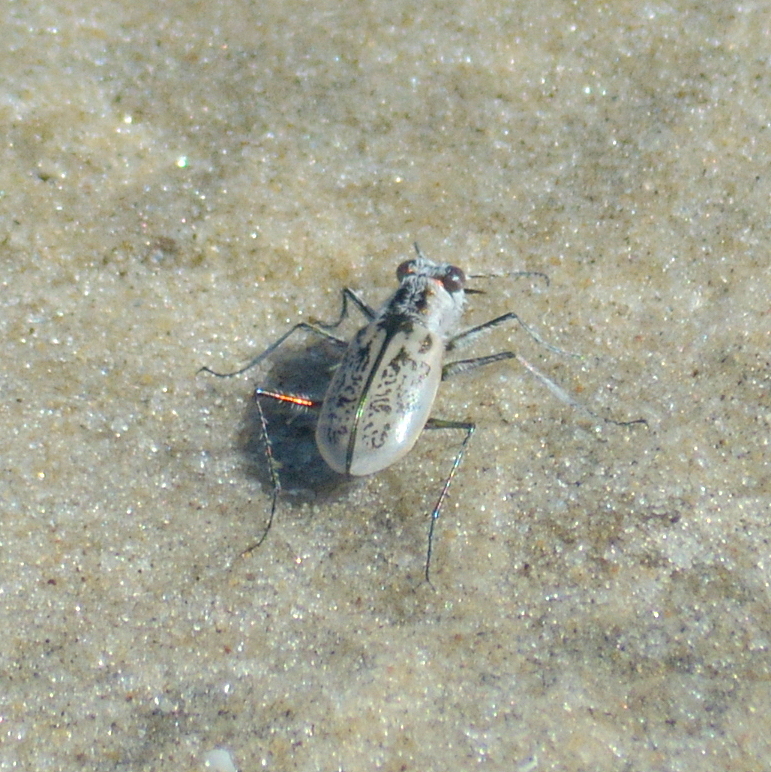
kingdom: Animalia
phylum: Arthropoda
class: Insecta
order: Coleoptera
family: Carabidae
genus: Cylindera
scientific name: Cylindera nivea
